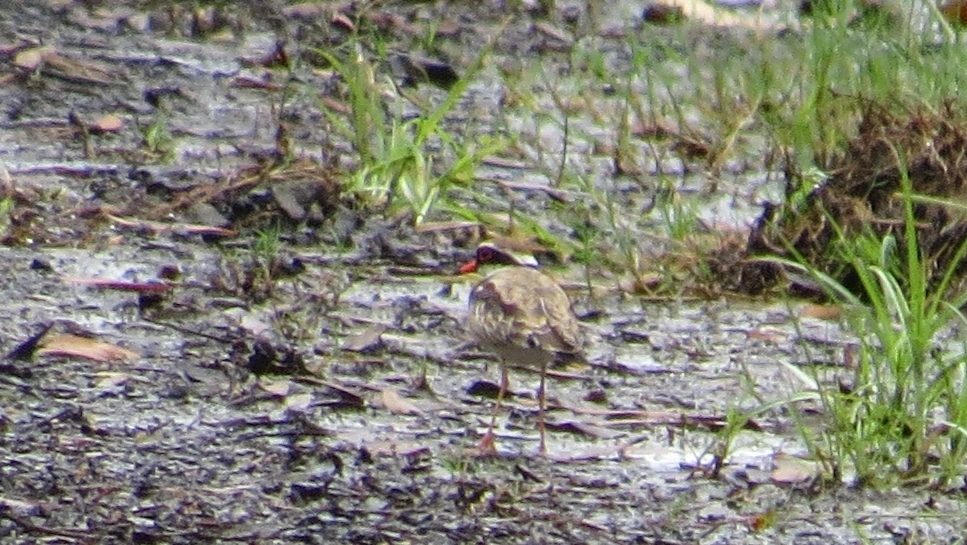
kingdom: Animalia
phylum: Chordata
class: Aves
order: Charadriiformes
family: Charadriidae
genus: Elseyornis
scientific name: Elseyornis melanops
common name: Black-fronted dotterel
